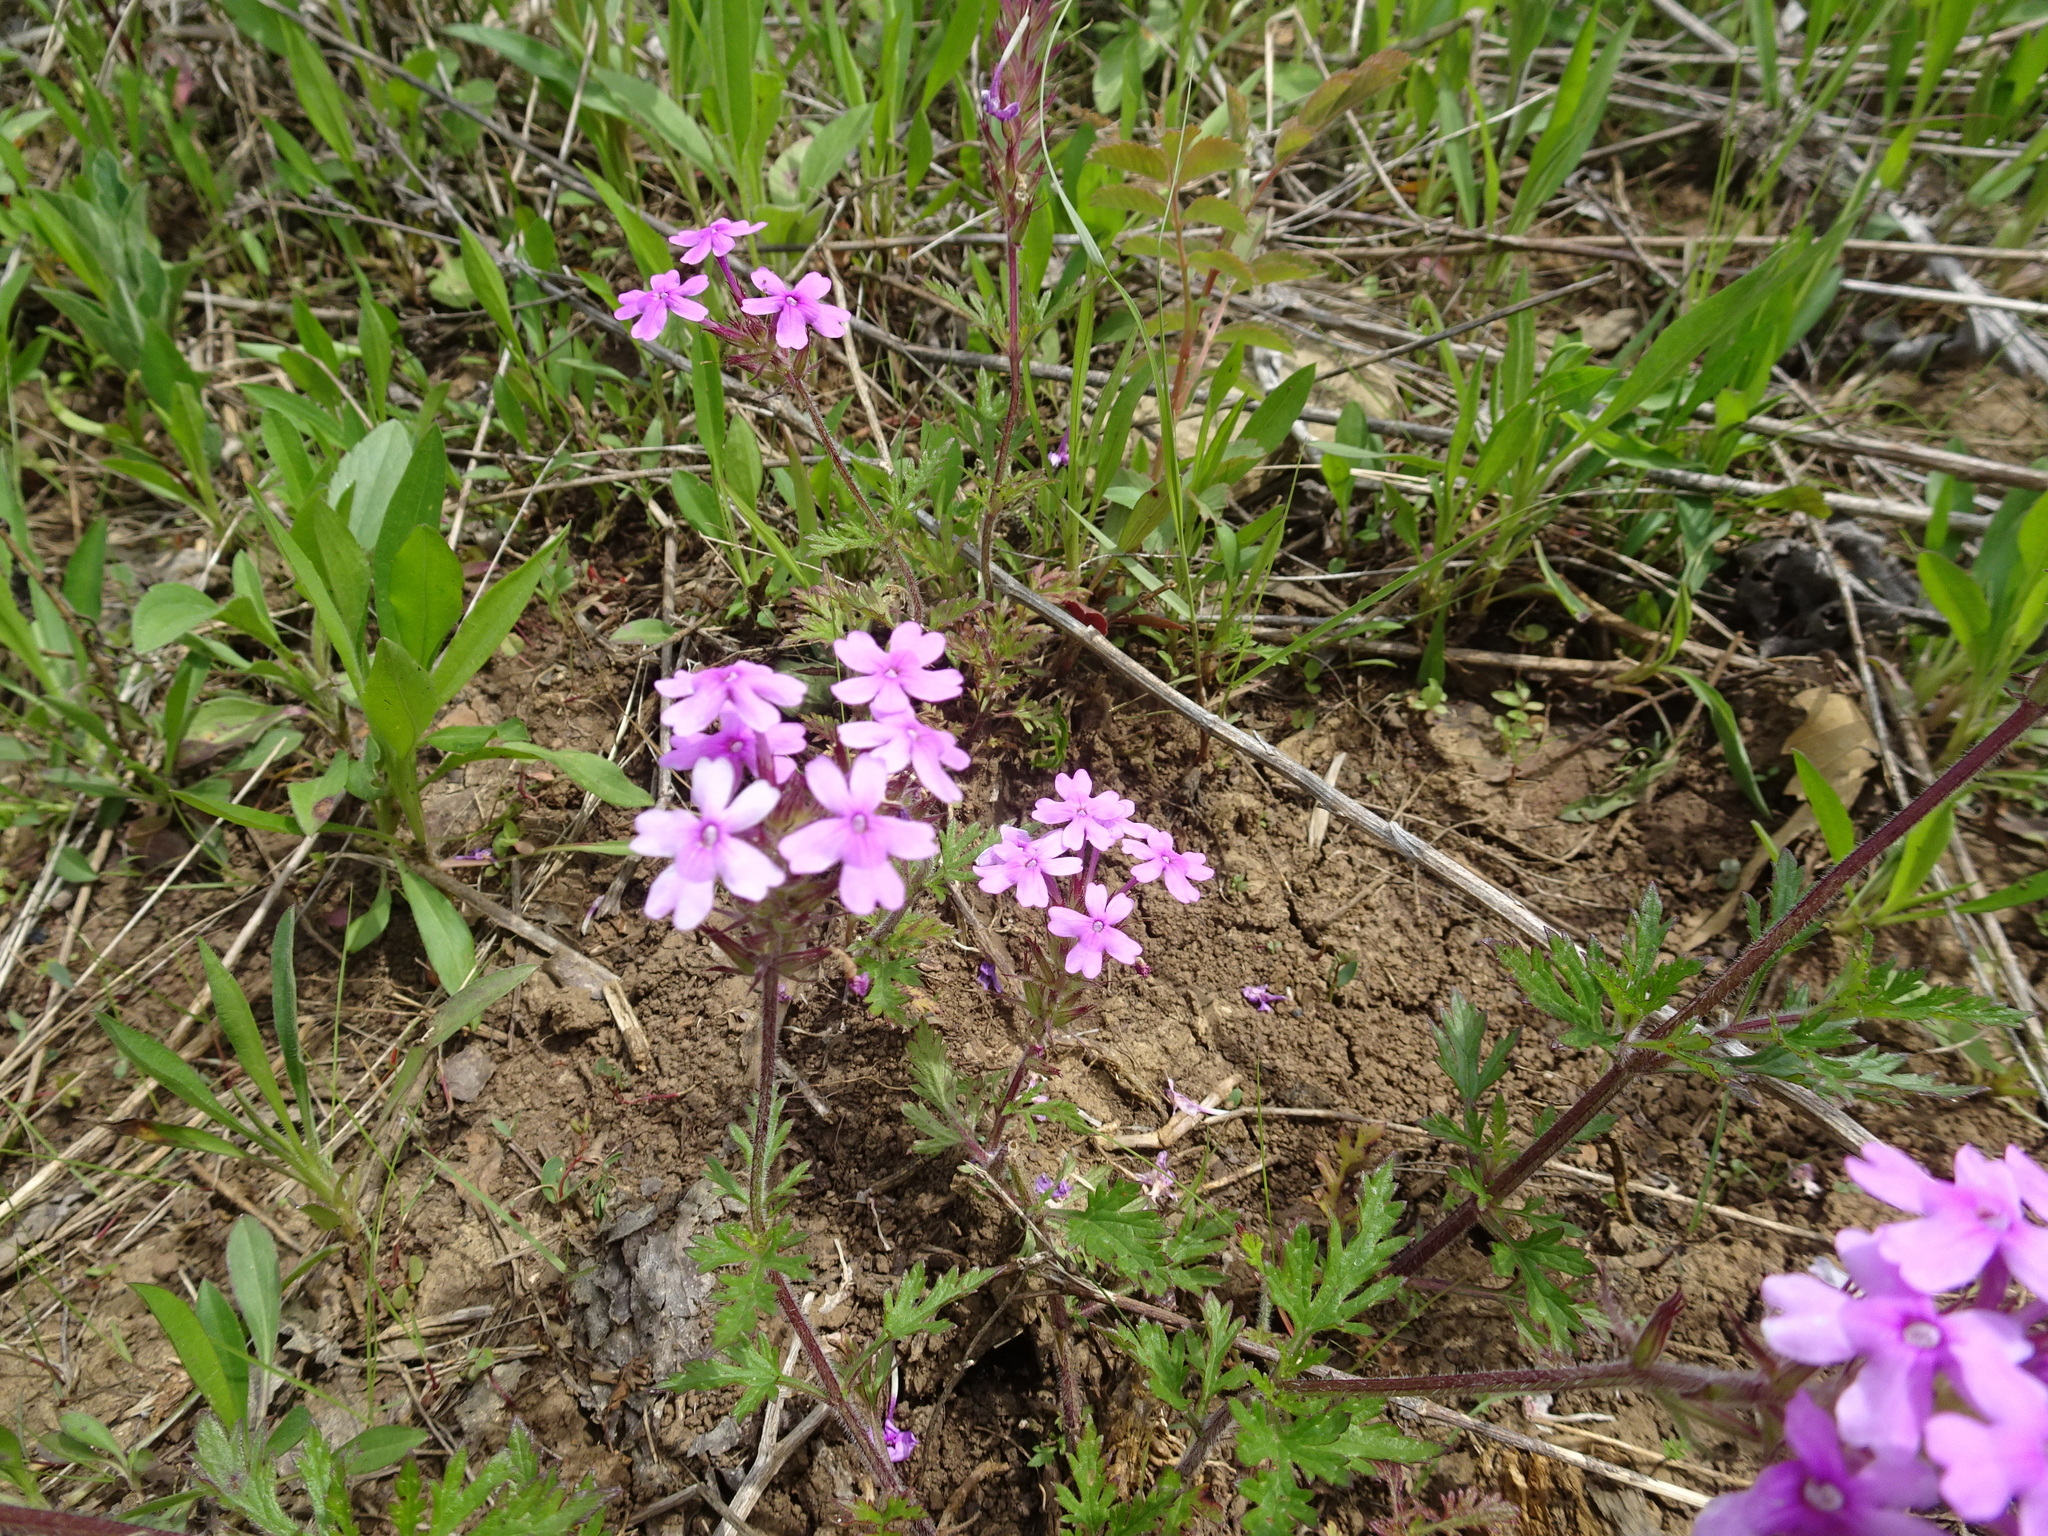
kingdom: Plantae
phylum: Tracheophyta
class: Magnoliopsida
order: Lamiales
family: Verbenaceae
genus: Verbena
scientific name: Verbena canadensis
